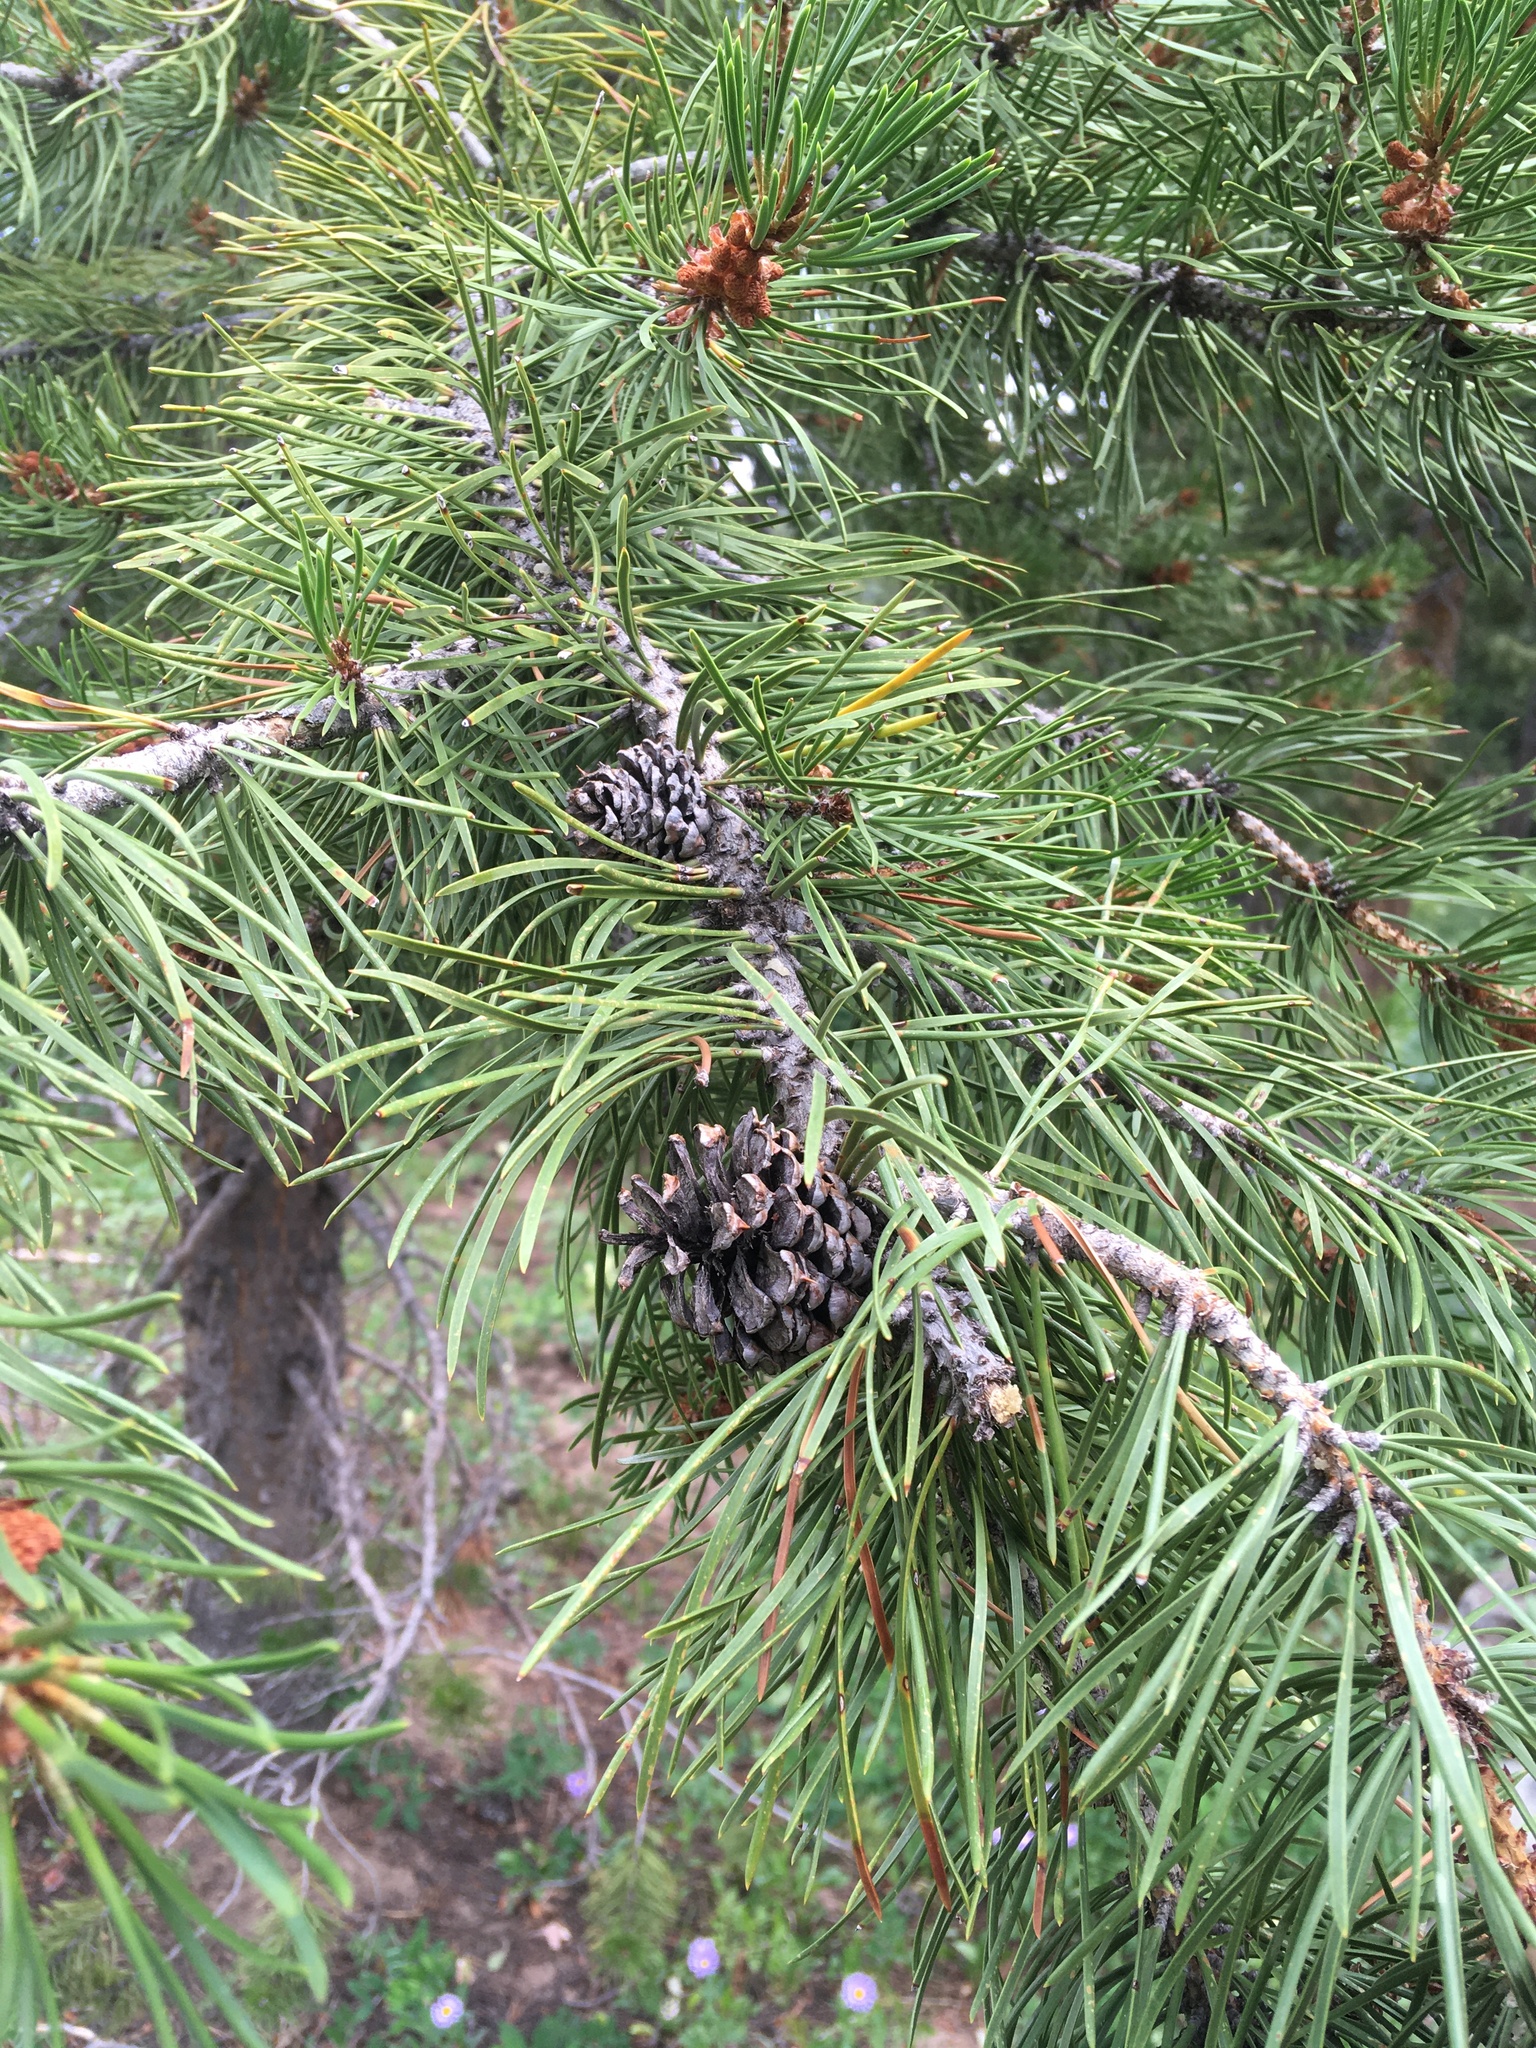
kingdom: Plantae
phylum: Tracheophyta
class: Pinopsida
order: Pinales
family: Pinaceae
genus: Pinus
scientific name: Pinus contorta
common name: Lodgepole pine
